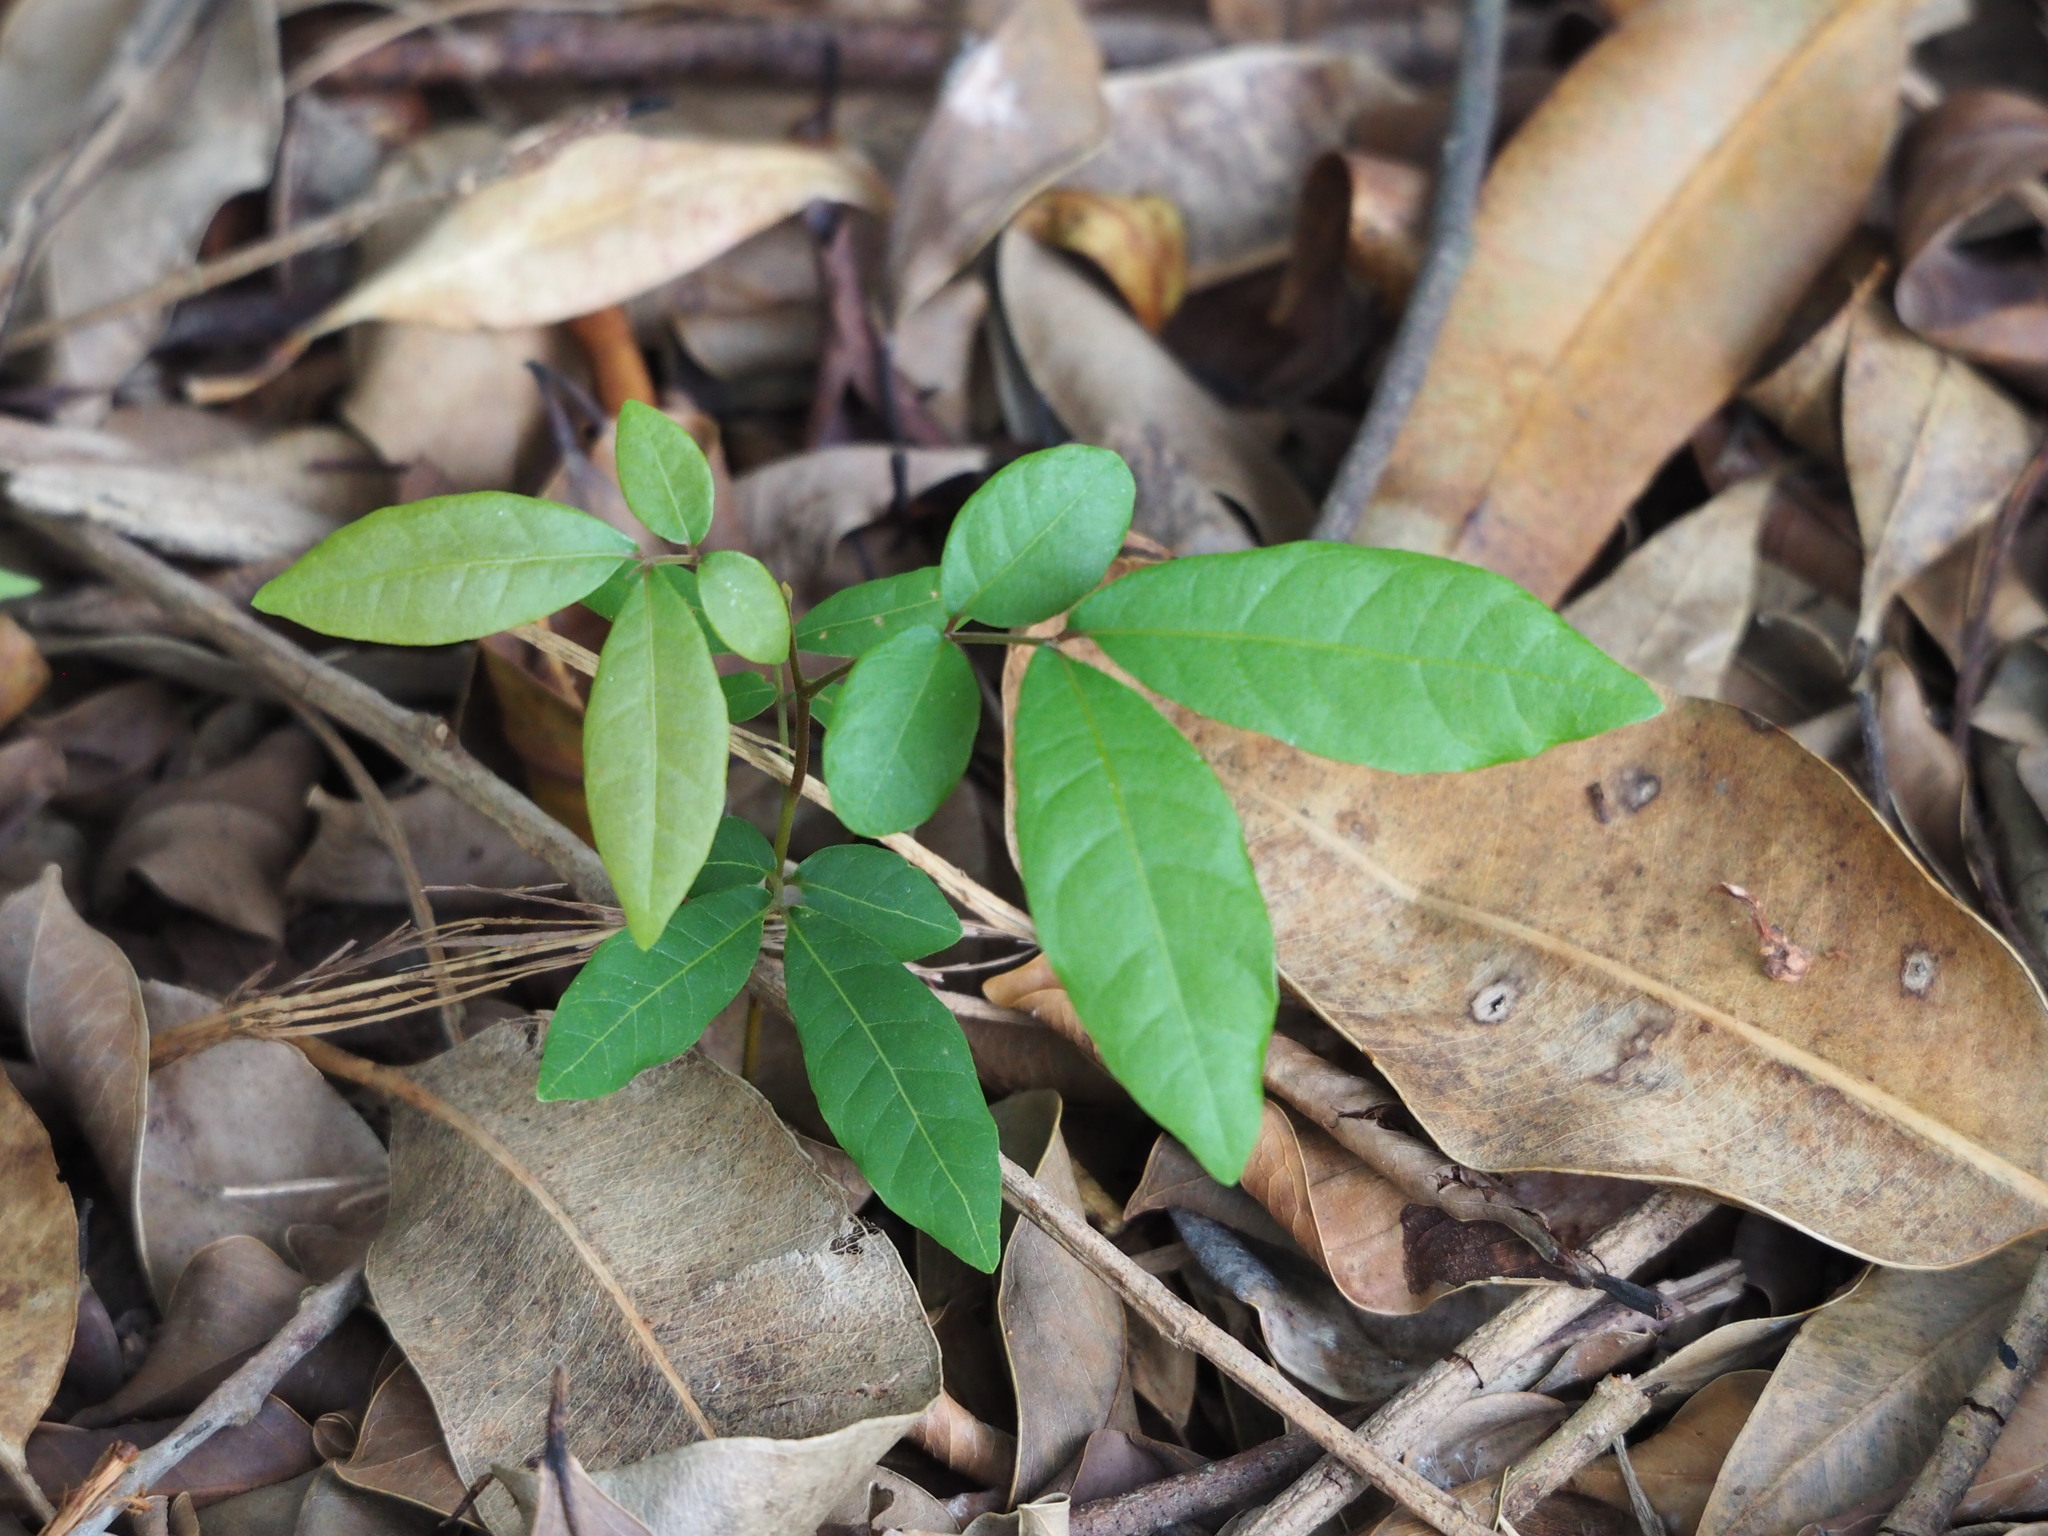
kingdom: Plantae
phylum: Tracheophyta
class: Magnoliopsida
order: Sapindales
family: Sapindaceae
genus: Dimocarpus
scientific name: Dimocarpus longan
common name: Longan
